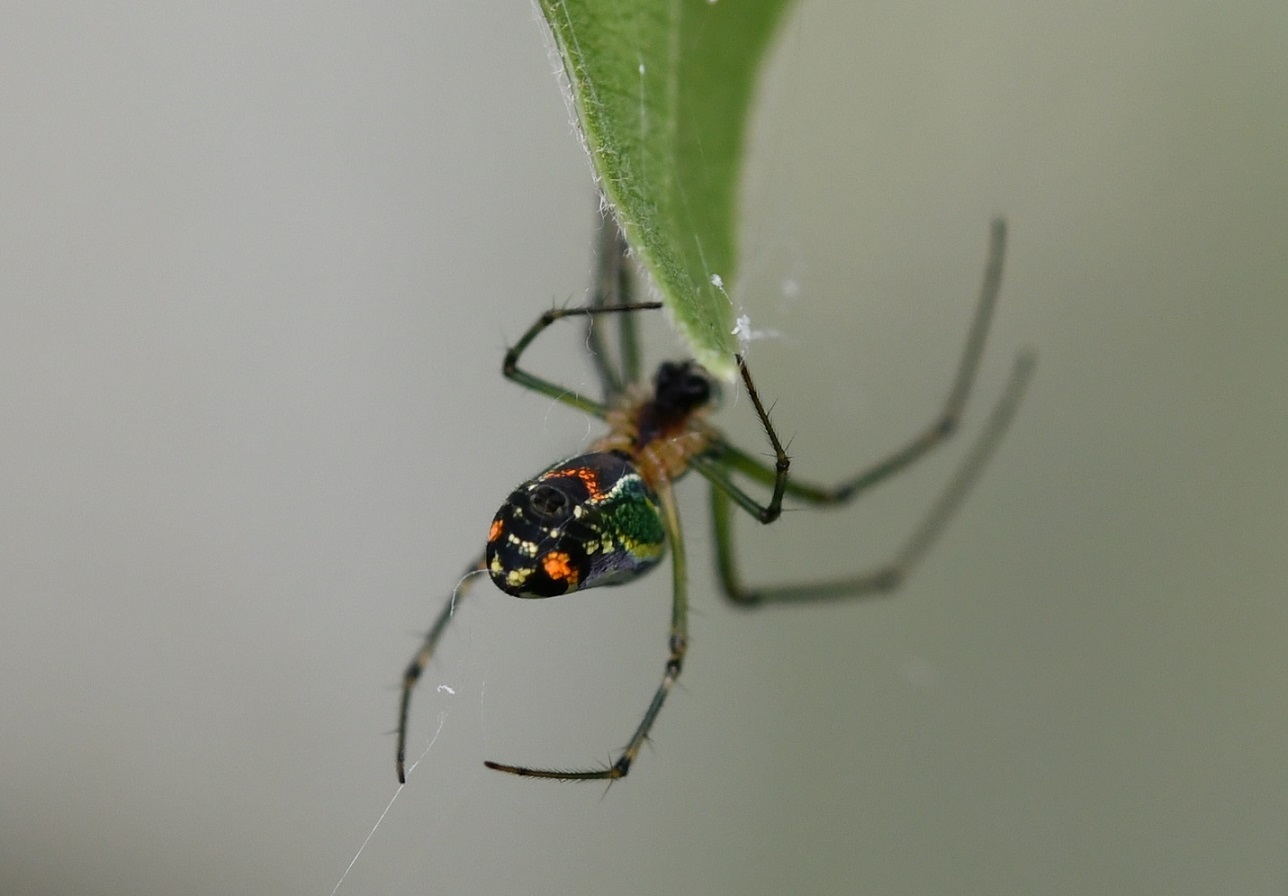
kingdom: Animalia
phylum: Arthropoda
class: Arachnida
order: Araneae
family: Tetragnathidae
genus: Leucauge
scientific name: Leucauge mariana
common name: Longjawed orb weavers
